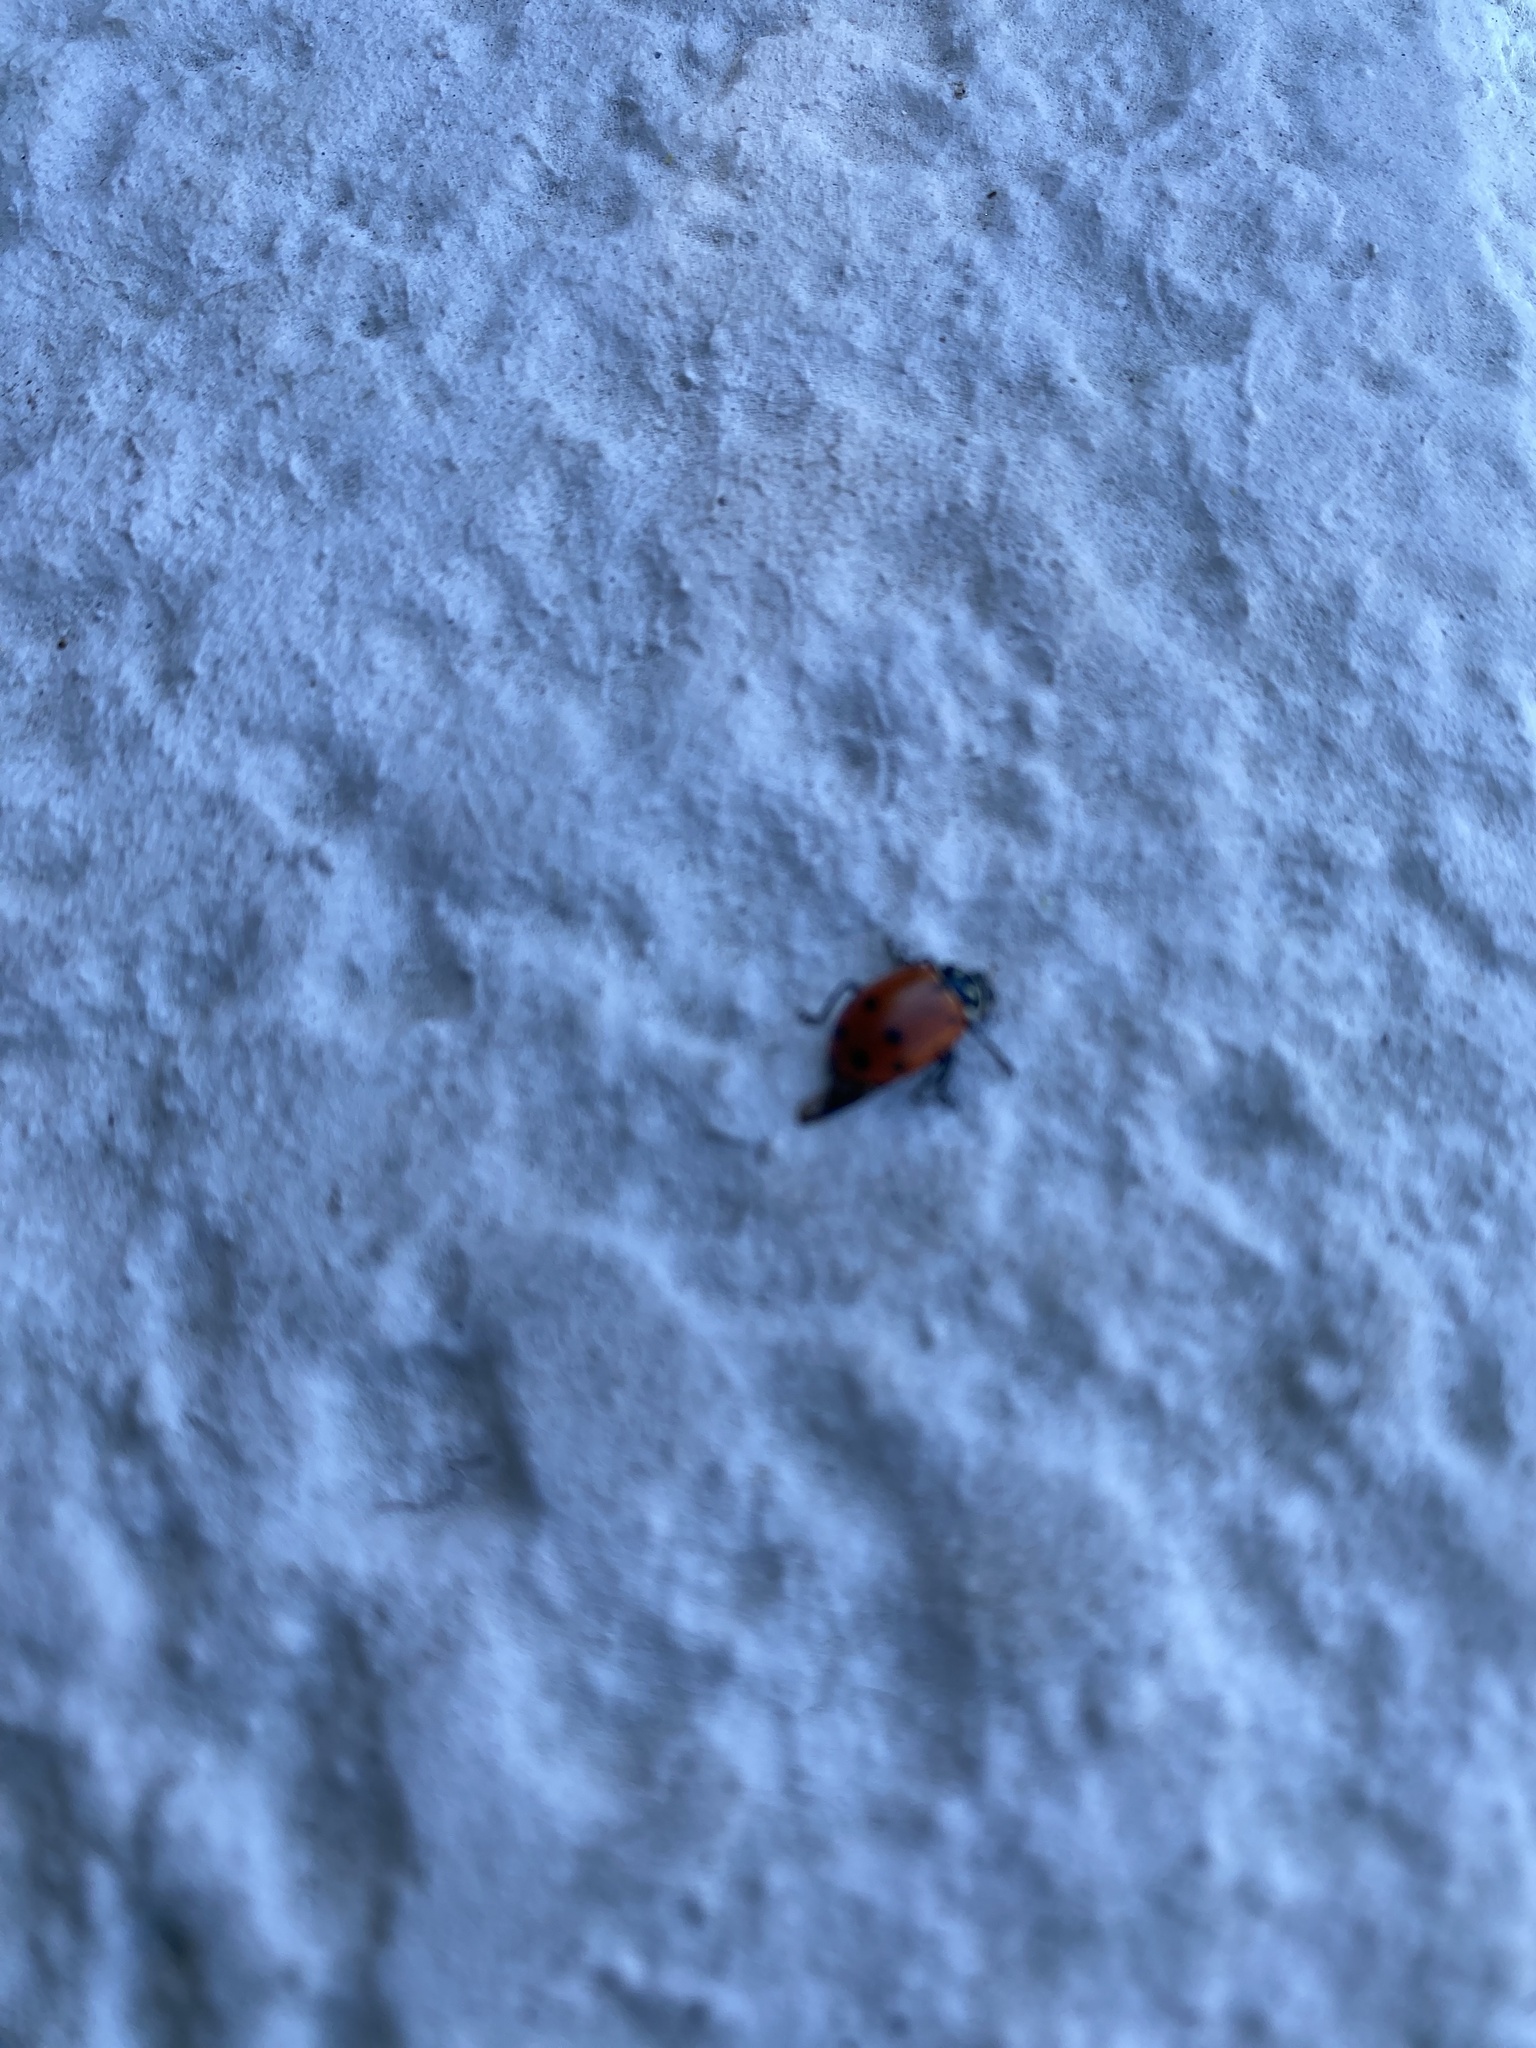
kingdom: Animalia
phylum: Arthropoda
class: Insecta
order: Coleoptera
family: Coccinellidae
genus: Hippodamia
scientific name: Hippodamia convergens
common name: Convergent lady beetle
